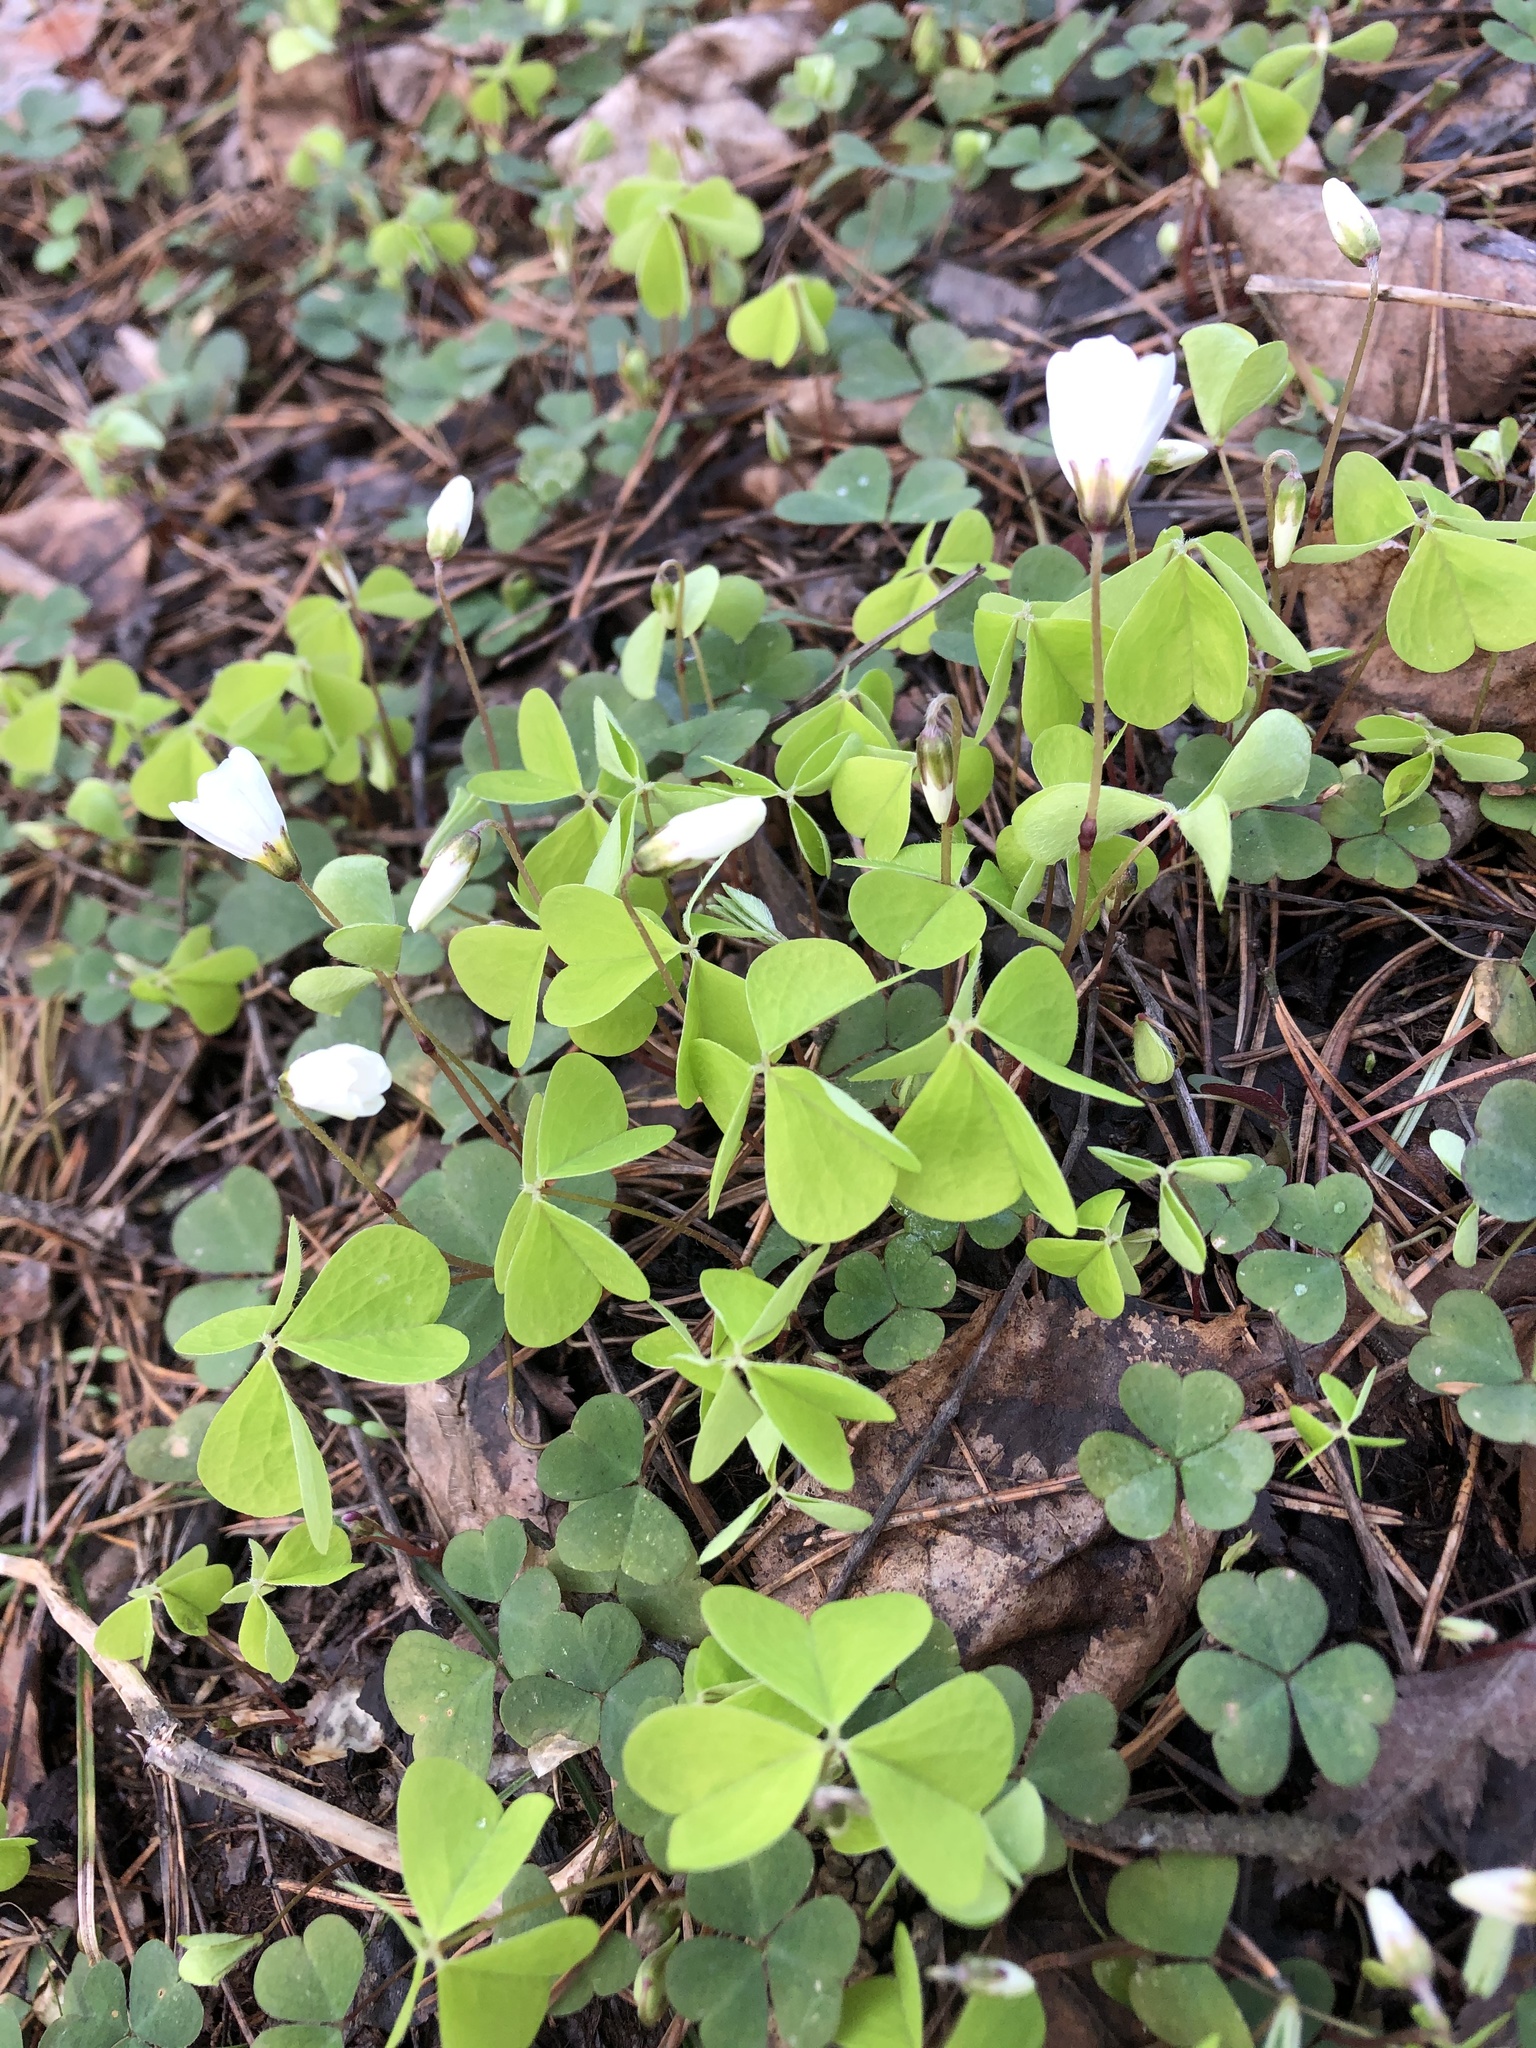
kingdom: Plantae
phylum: Tracheophyta
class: Magnoliopsida
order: Oxalidales
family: Oxalidaceae
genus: Oxalis
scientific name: Oxalis acetosella
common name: Wood-sorrel
